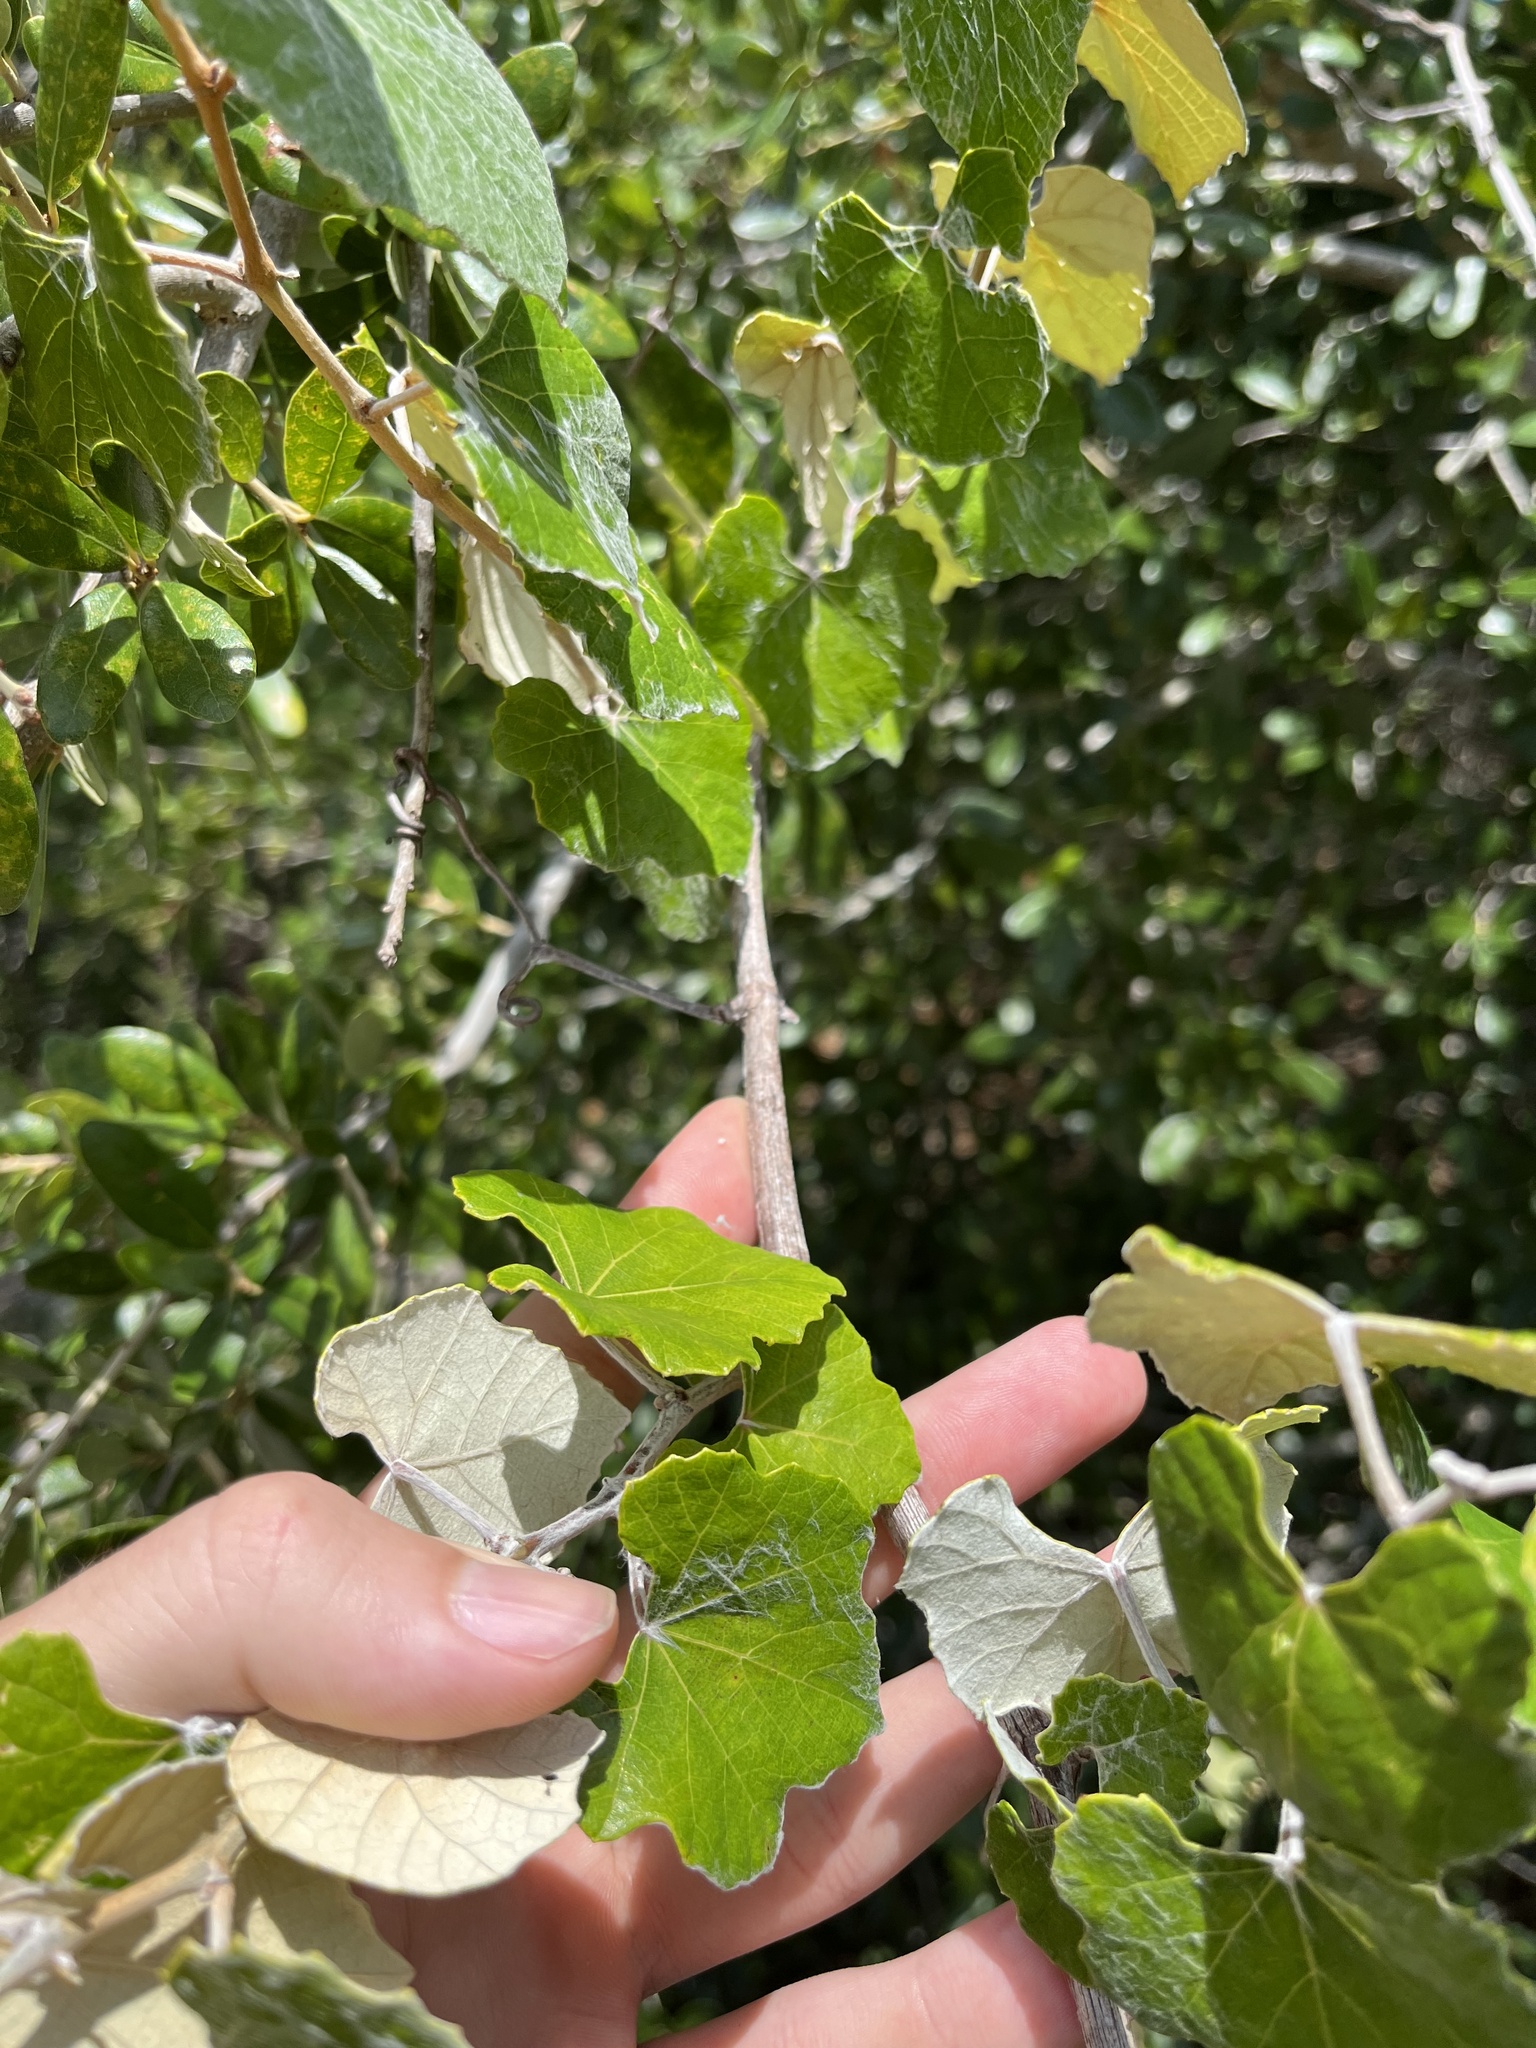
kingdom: Plantae
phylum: Tracheophyta
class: Magnoliopsida
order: Vitales
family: Vitaceae
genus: Vitis
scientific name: Vitis shuttleworthii
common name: Caloosa grape
